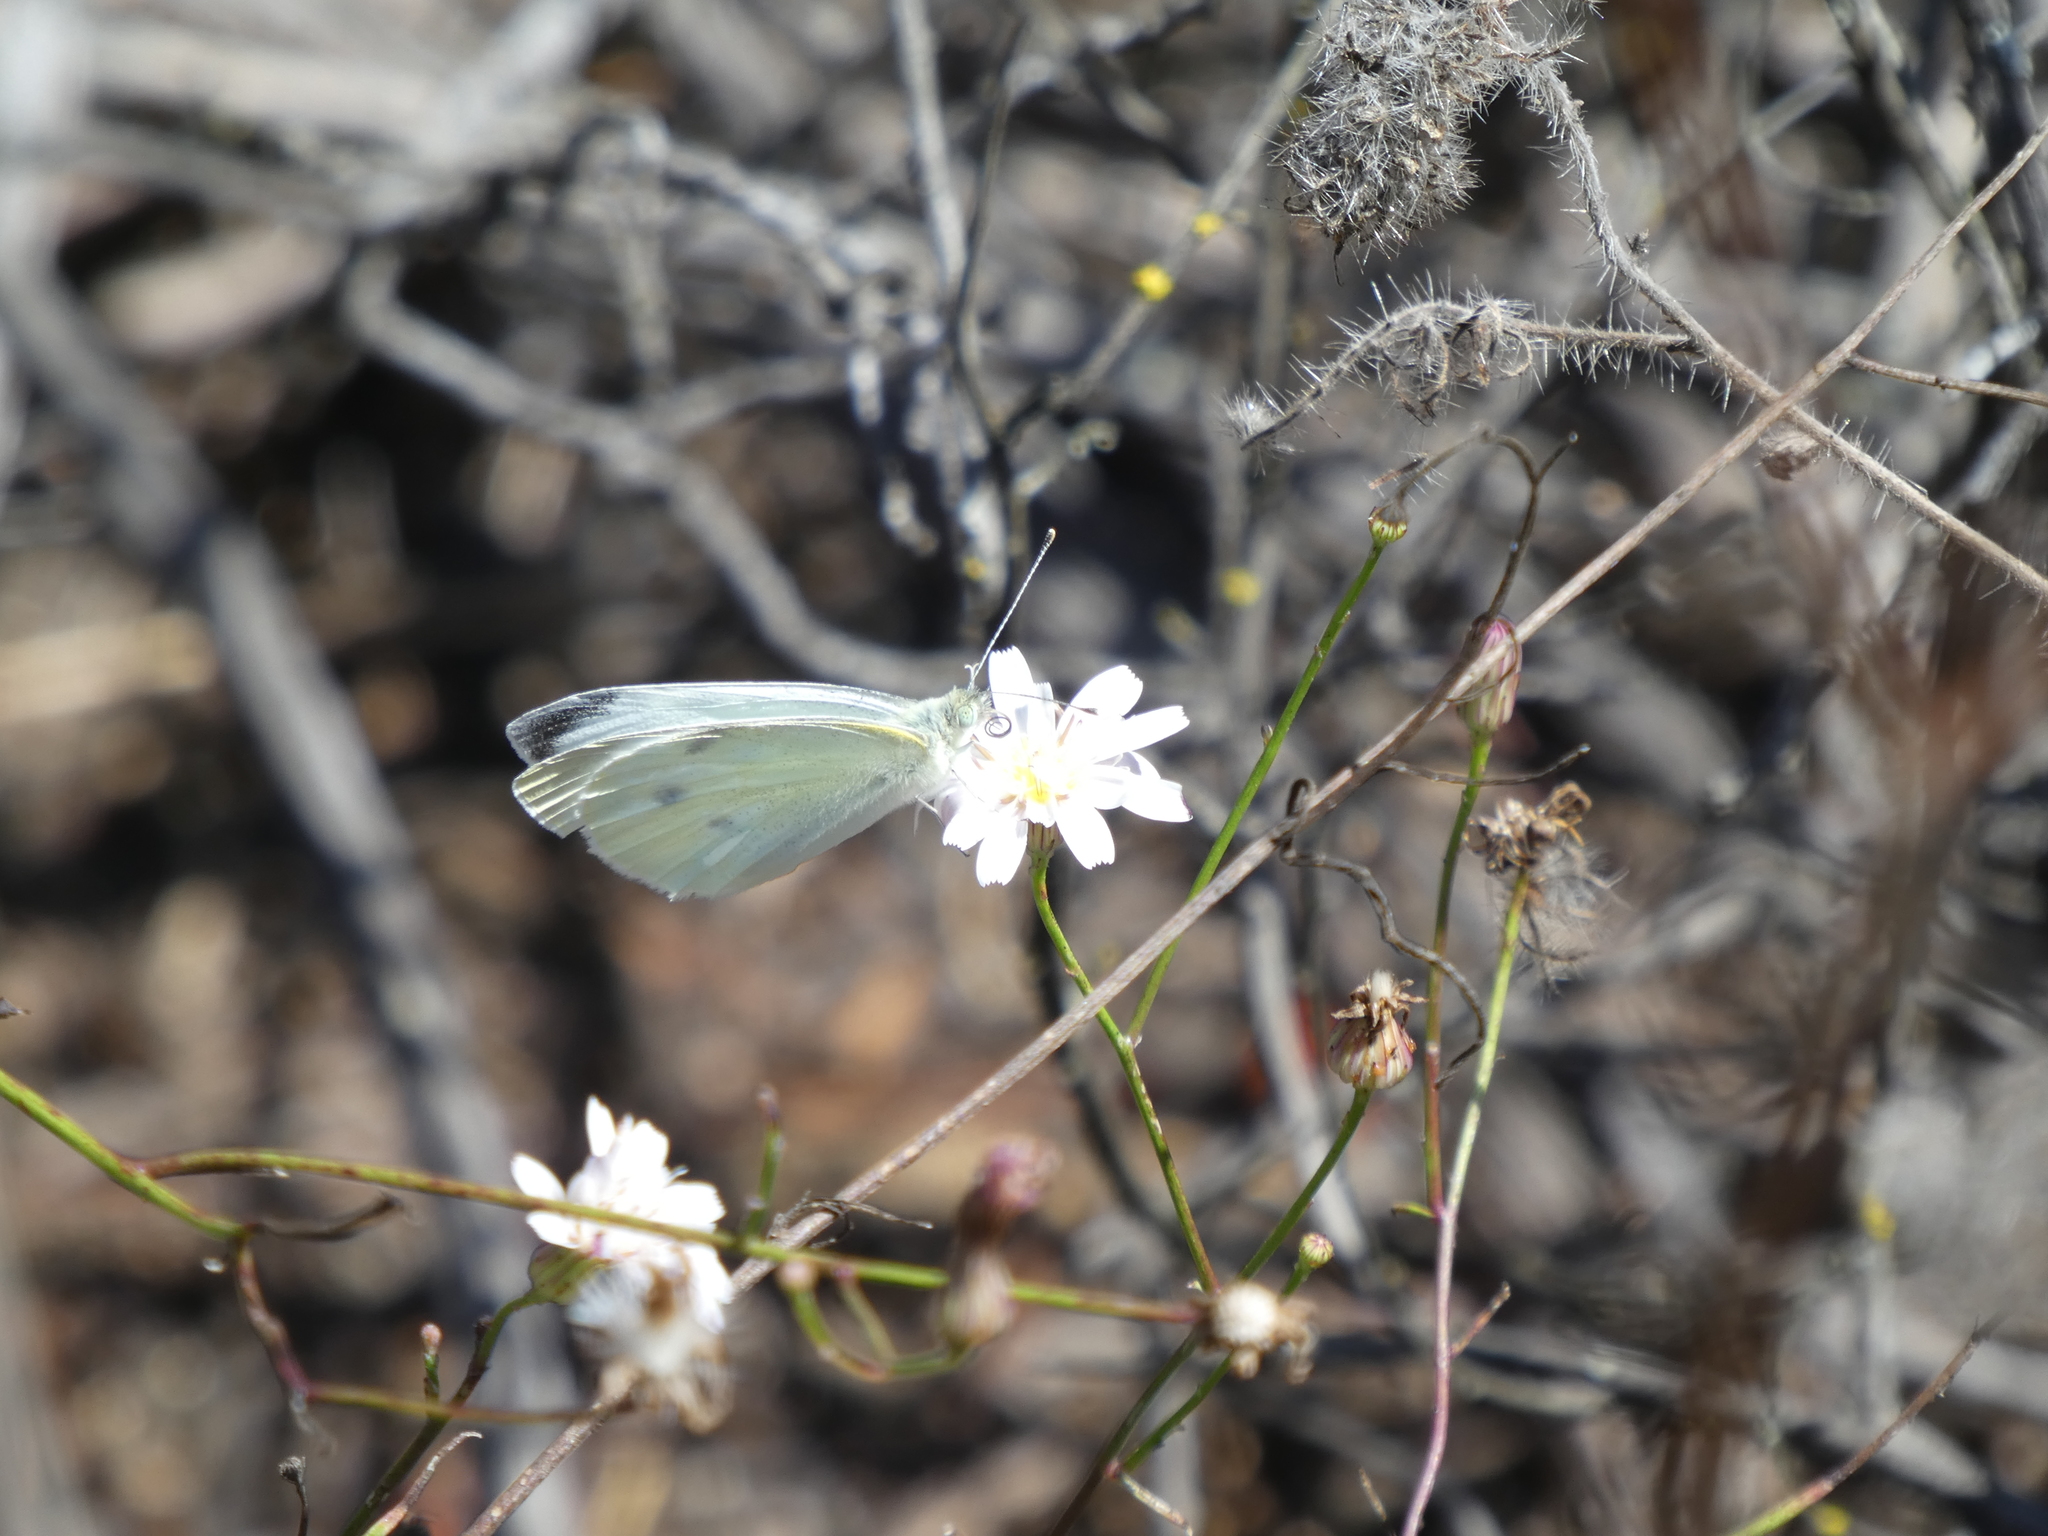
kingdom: Animalia
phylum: Arthropoda
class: Insecta
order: Lepidoptera
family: Pieridae
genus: Pieris
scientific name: Pieris rapae
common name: Small white
